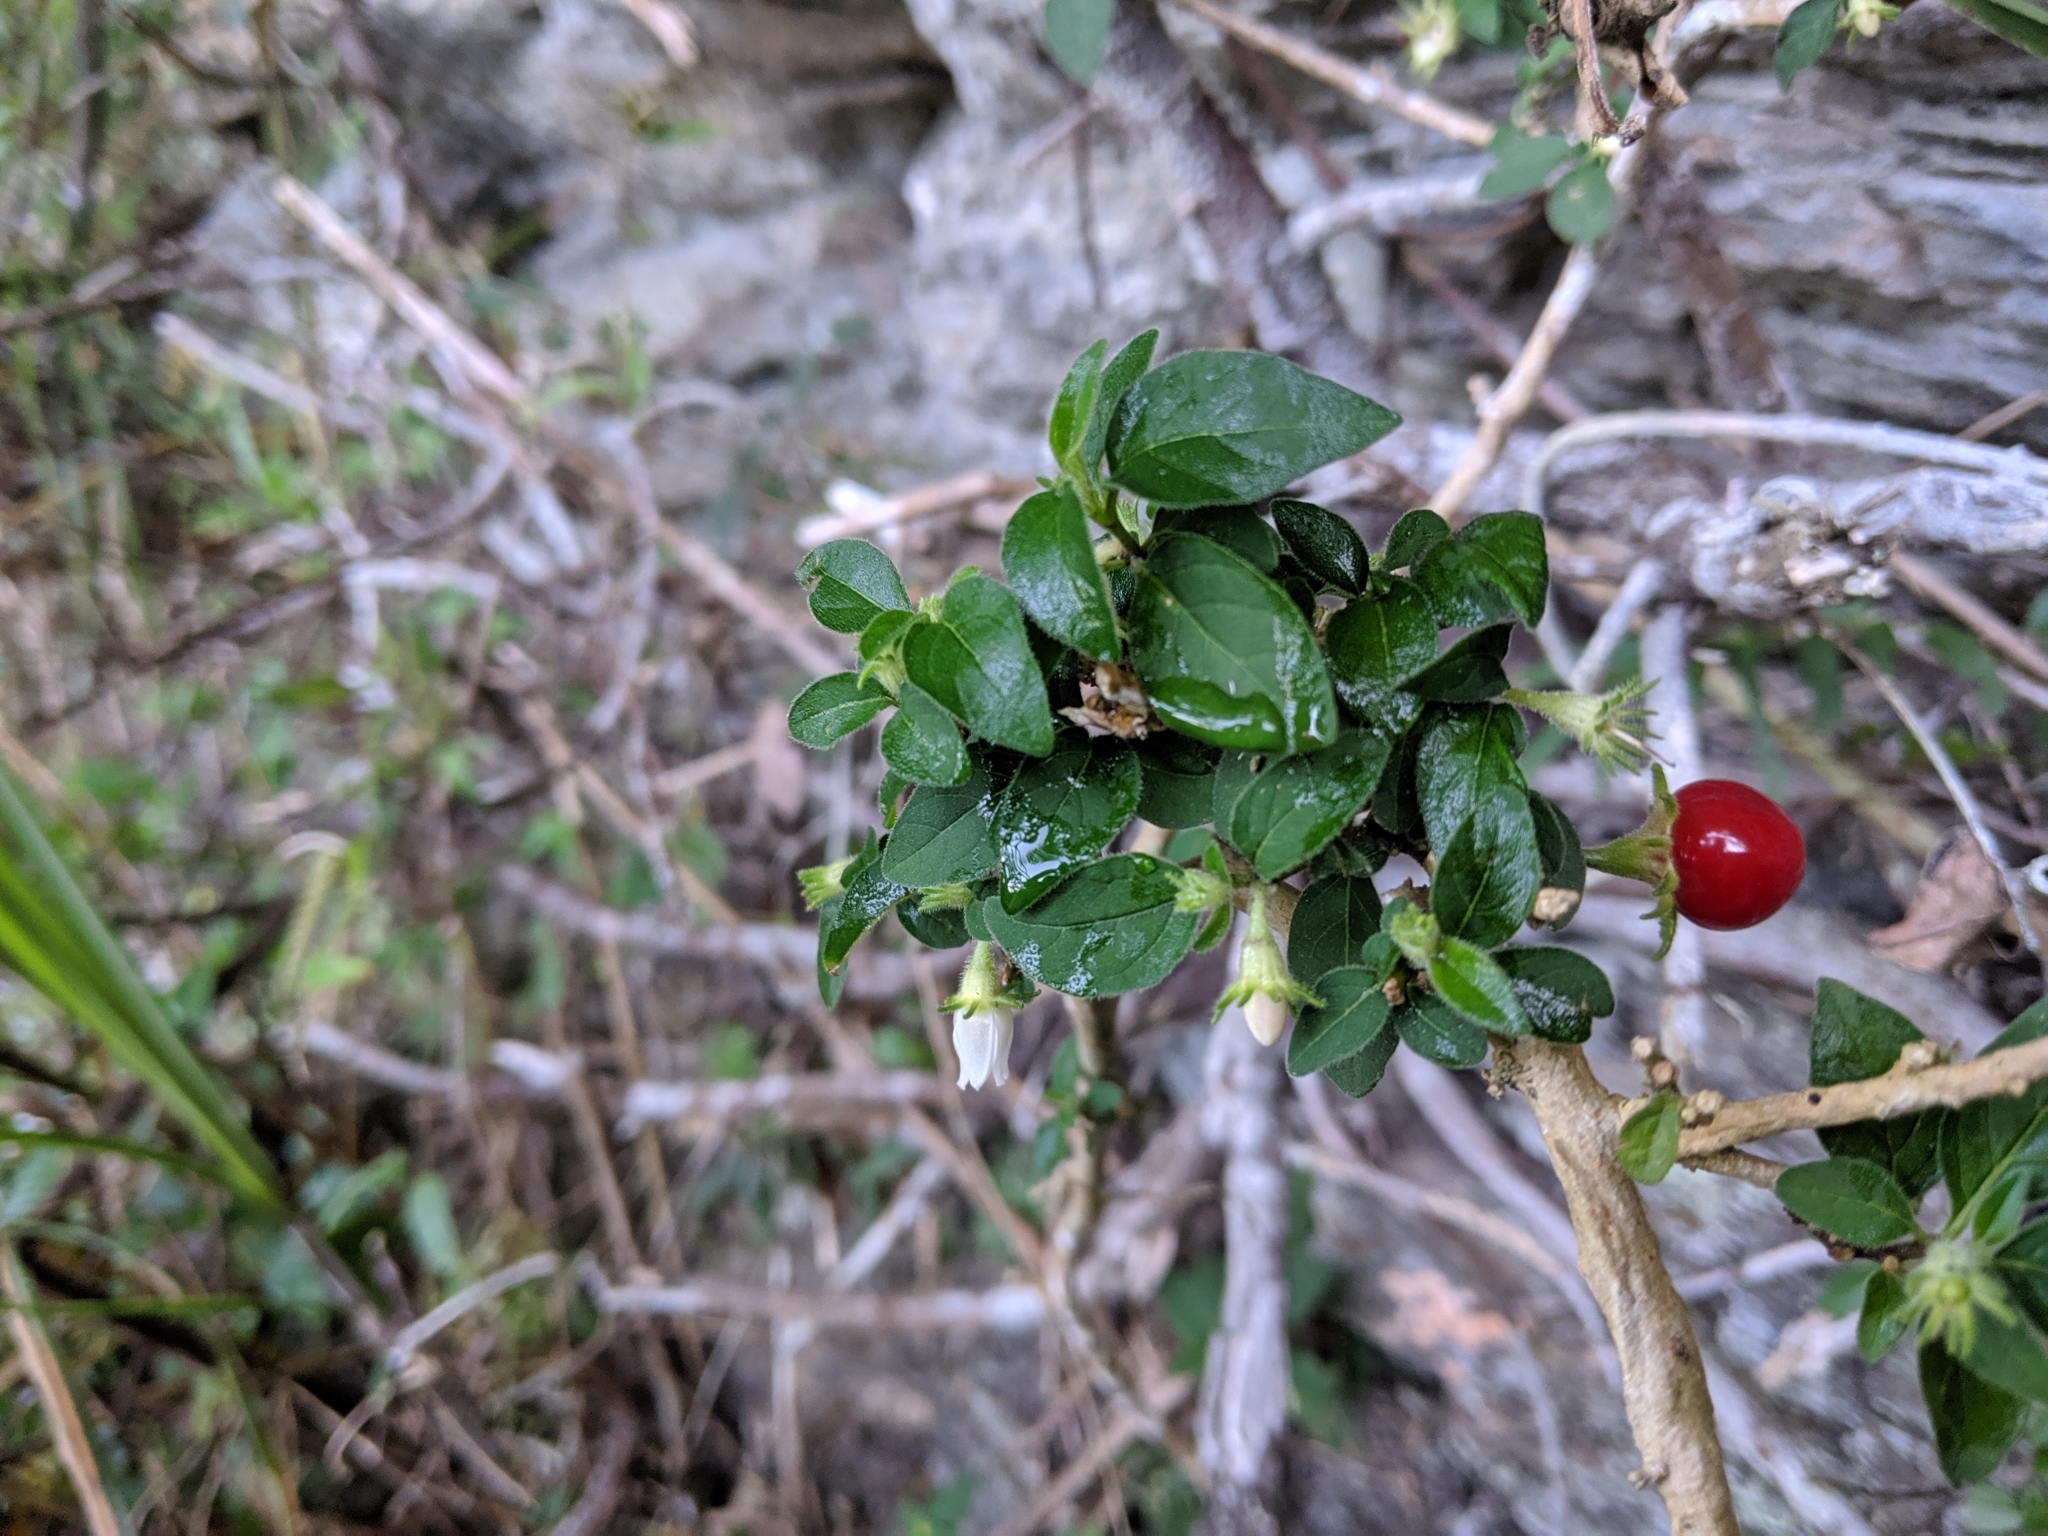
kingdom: Plantae
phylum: Tracheophyta
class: Magnoliopsida
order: Solanales
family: Solanaceae
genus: Lycianthes
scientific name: Lycianthes biflora
